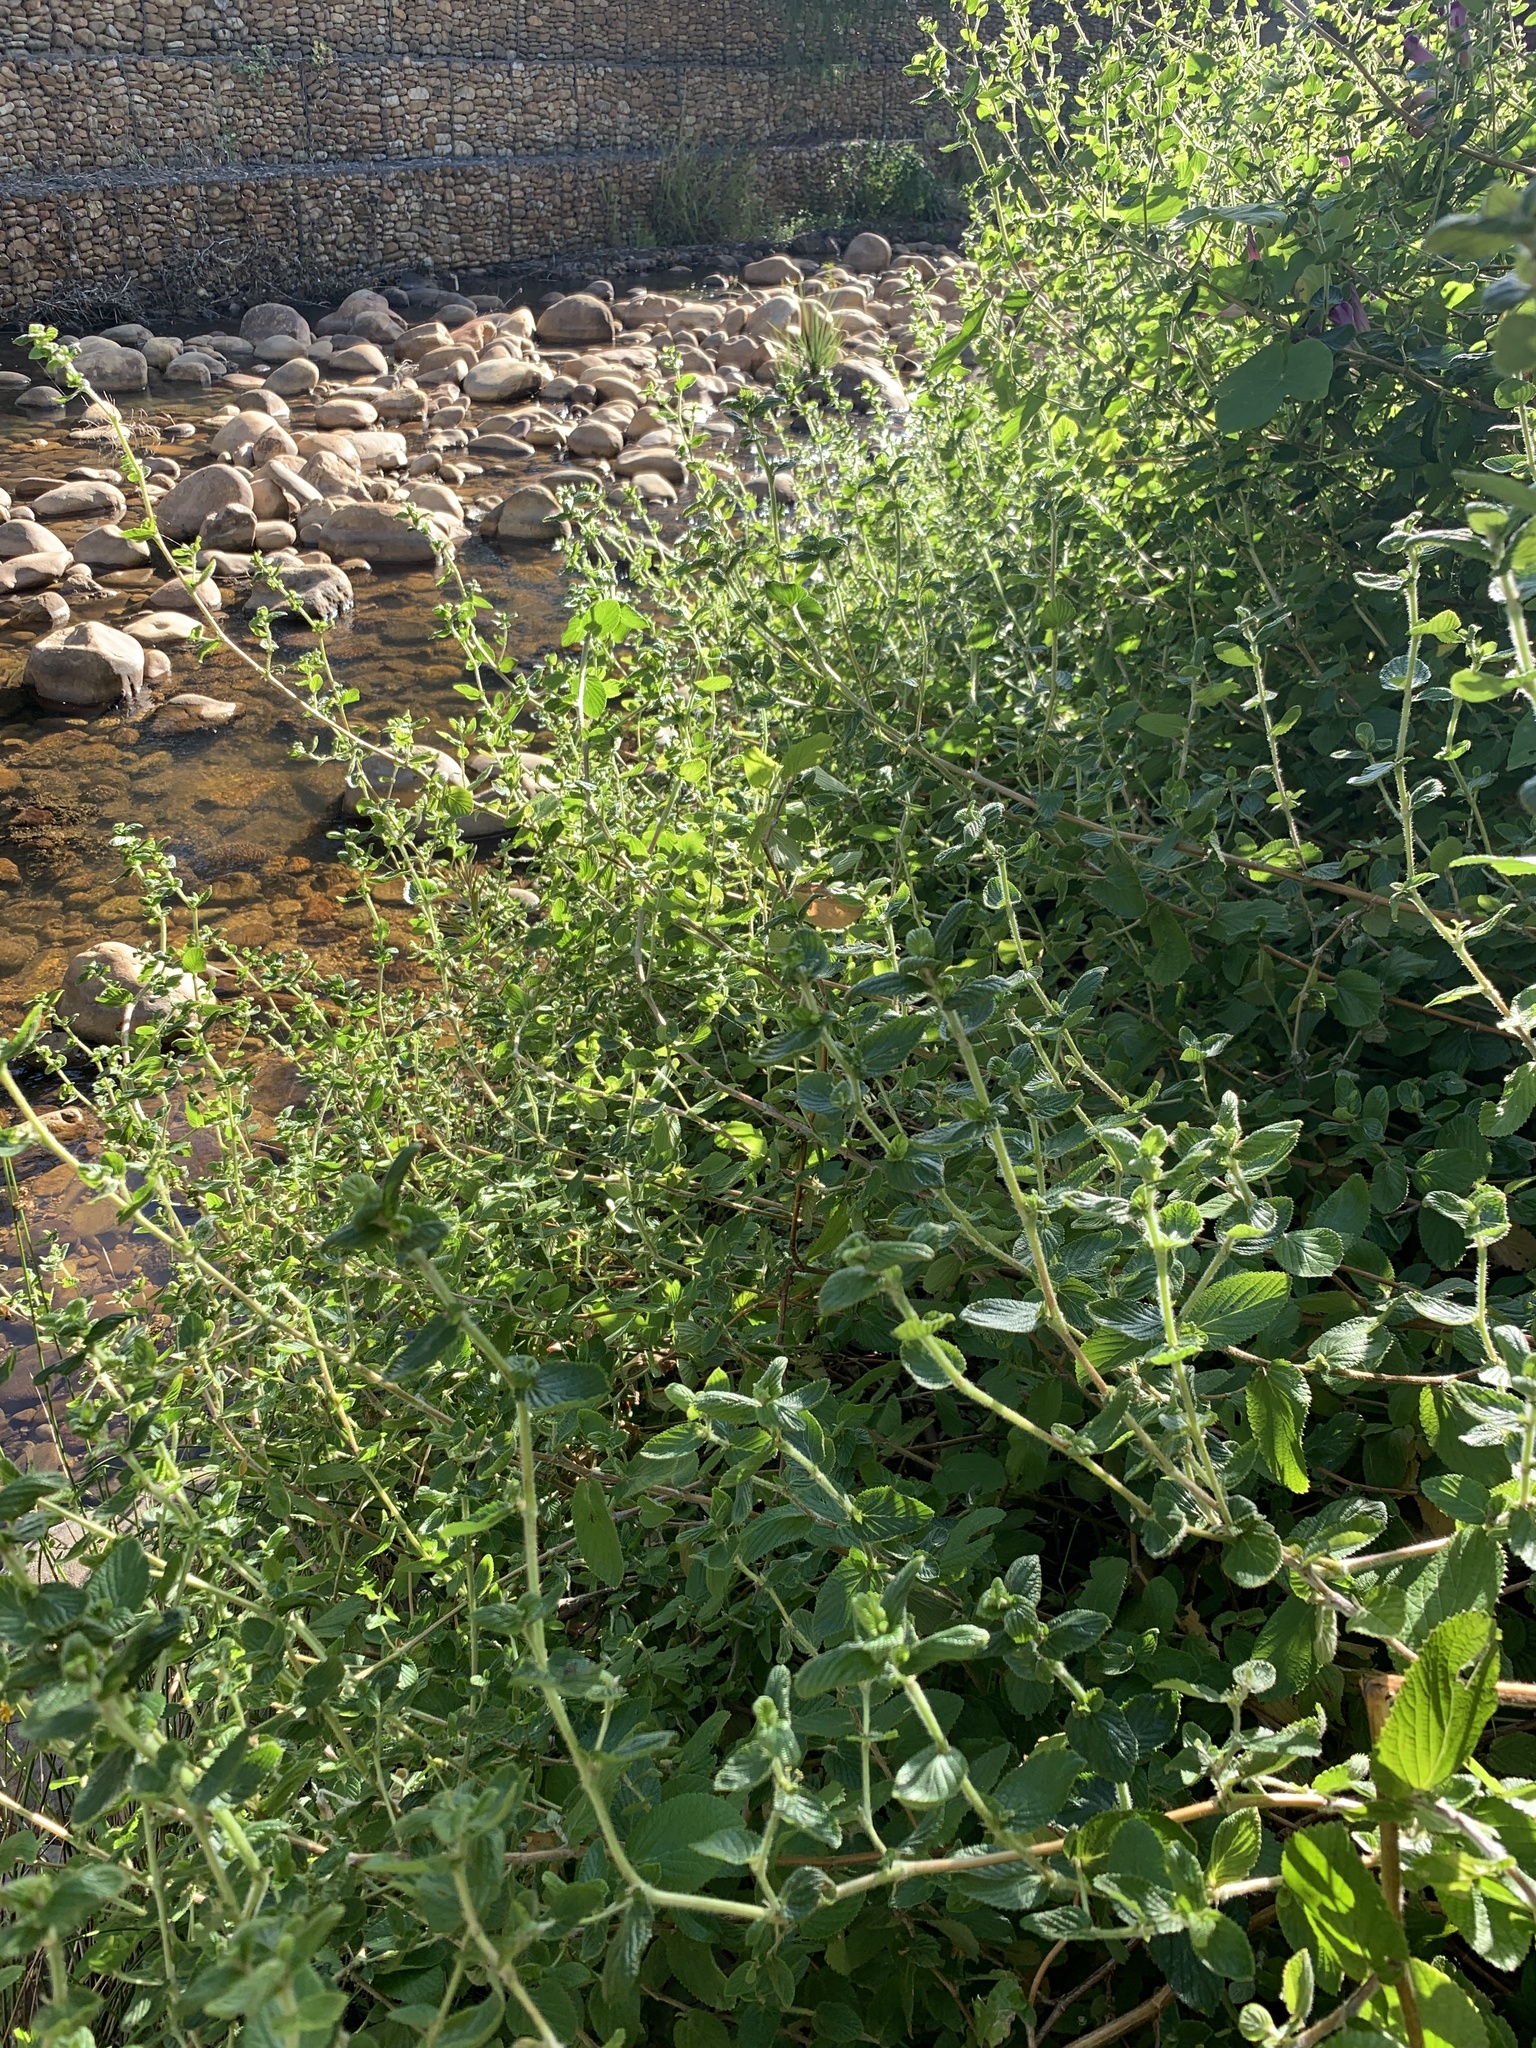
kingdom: Plantae
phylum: Tracheophyta
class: Magnoliopsida
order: Rosales
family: Rosaceae
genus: Cliffortia
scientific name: Cliffortia odorata
